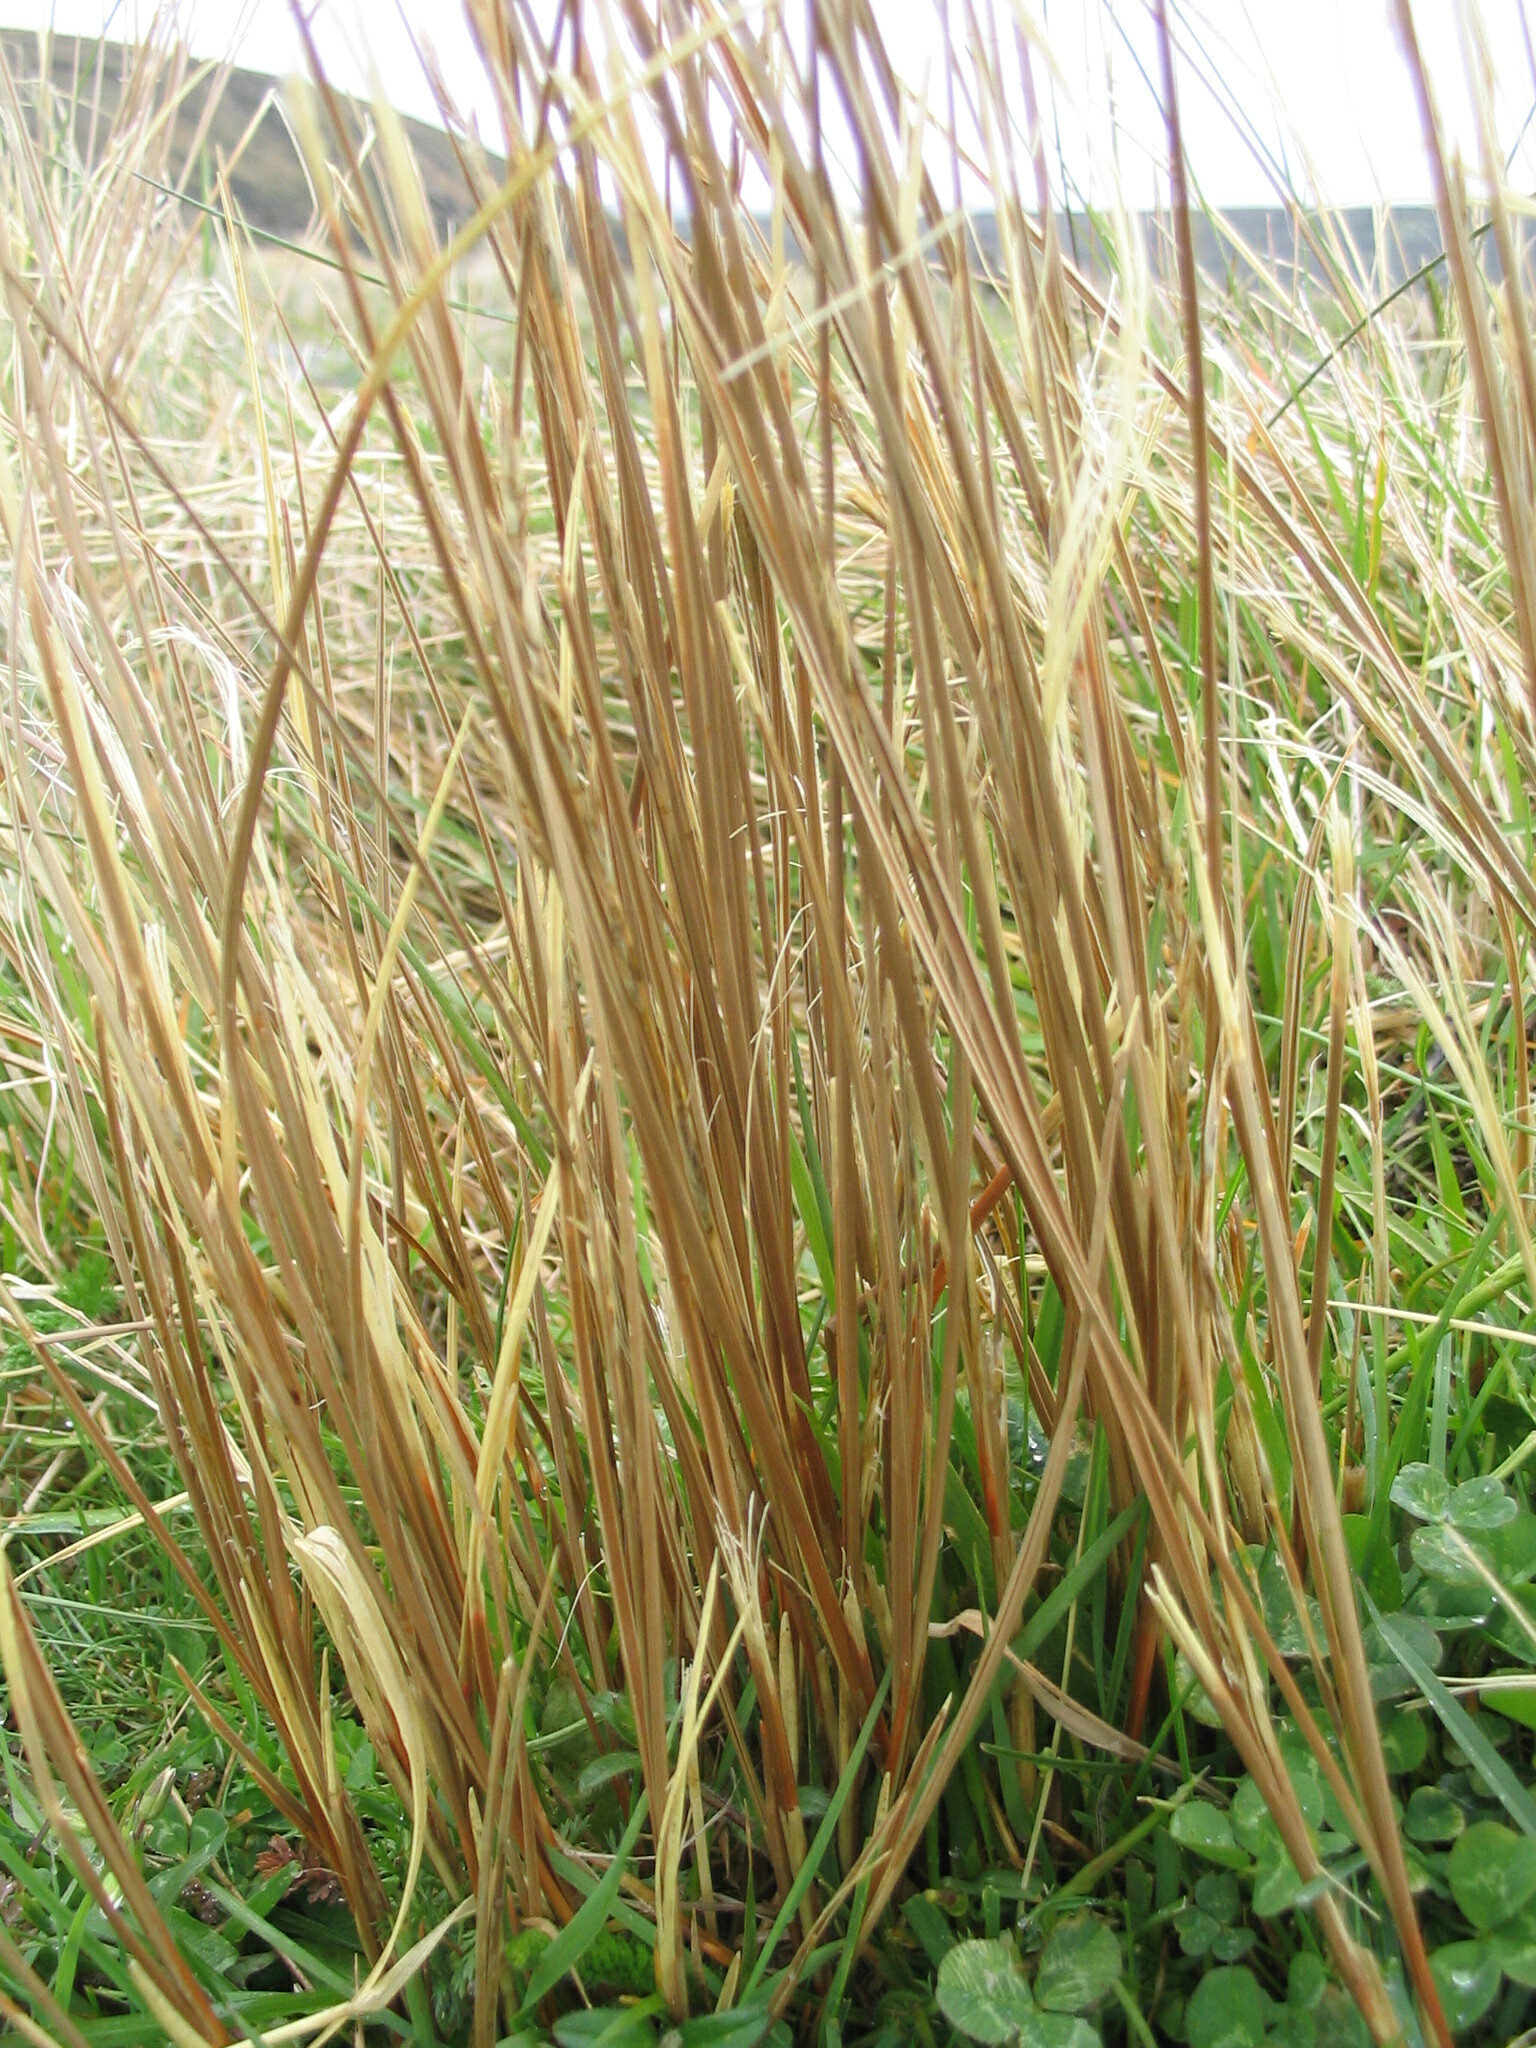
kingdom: Plantae
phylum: Tracheophyta
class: Liliopsida
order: Poales
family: Cyperaceae
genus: Carex
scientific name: Carex kaloides
